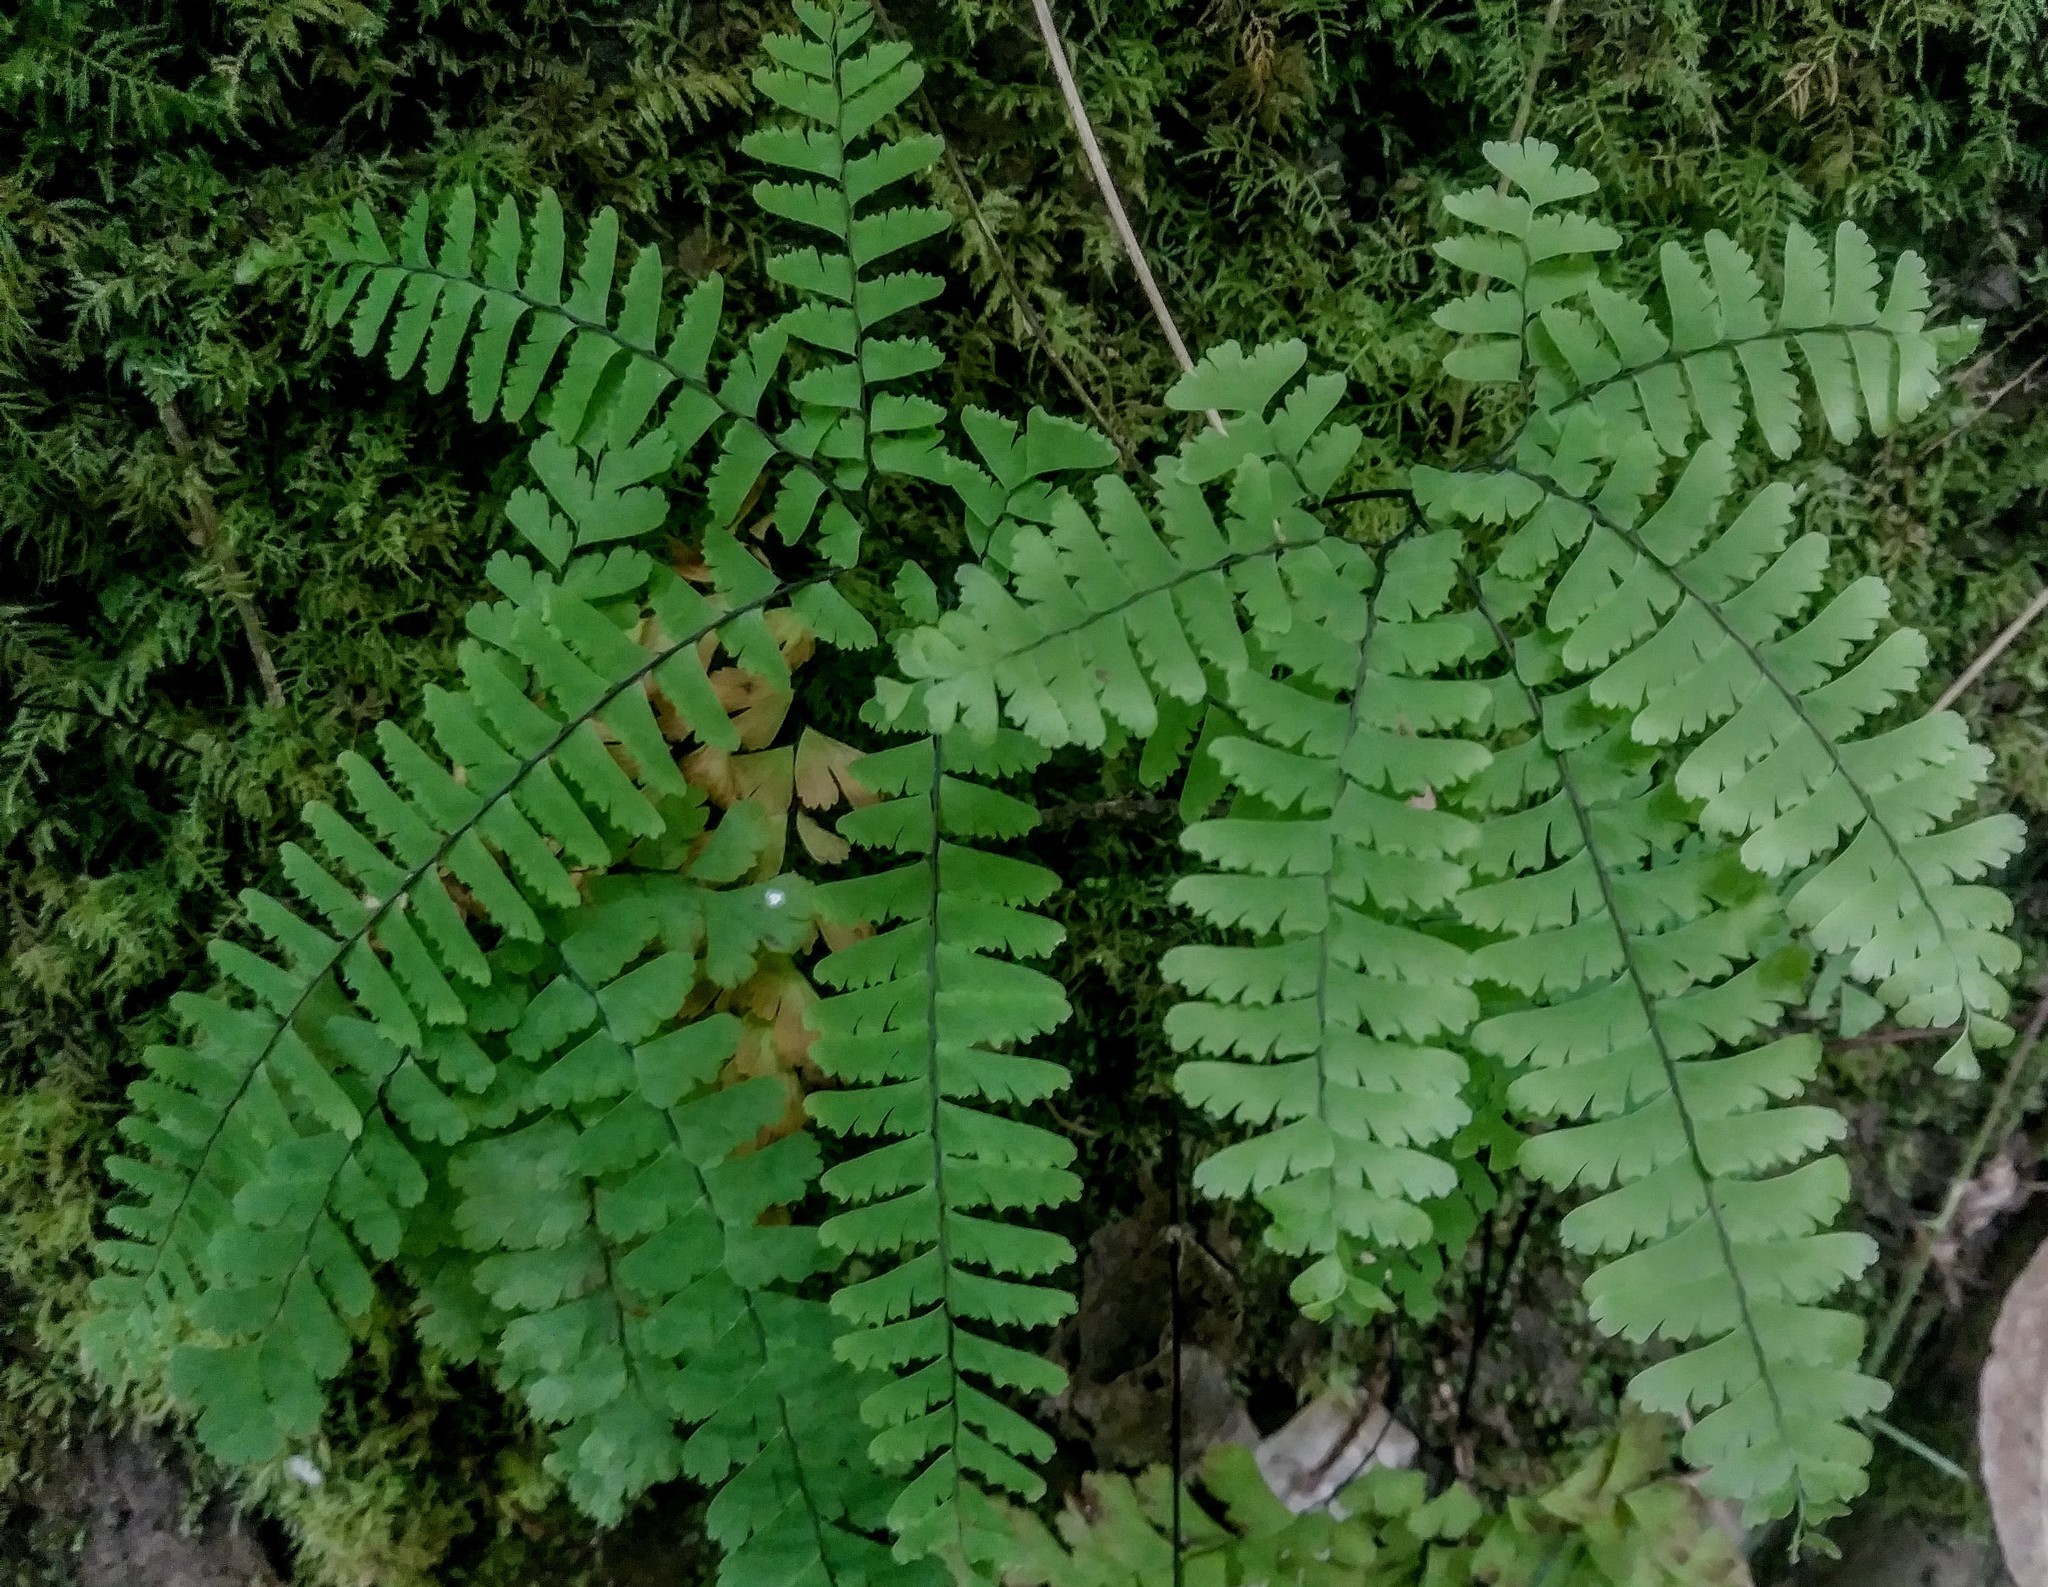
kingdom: Plantae
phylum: Tracheophyta
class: Polypodiopsida
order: Polypodiales
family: Pteridaceae
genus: Adiantum
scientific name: Adiantum aleuticum
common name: Aleutian maidenhair fern
